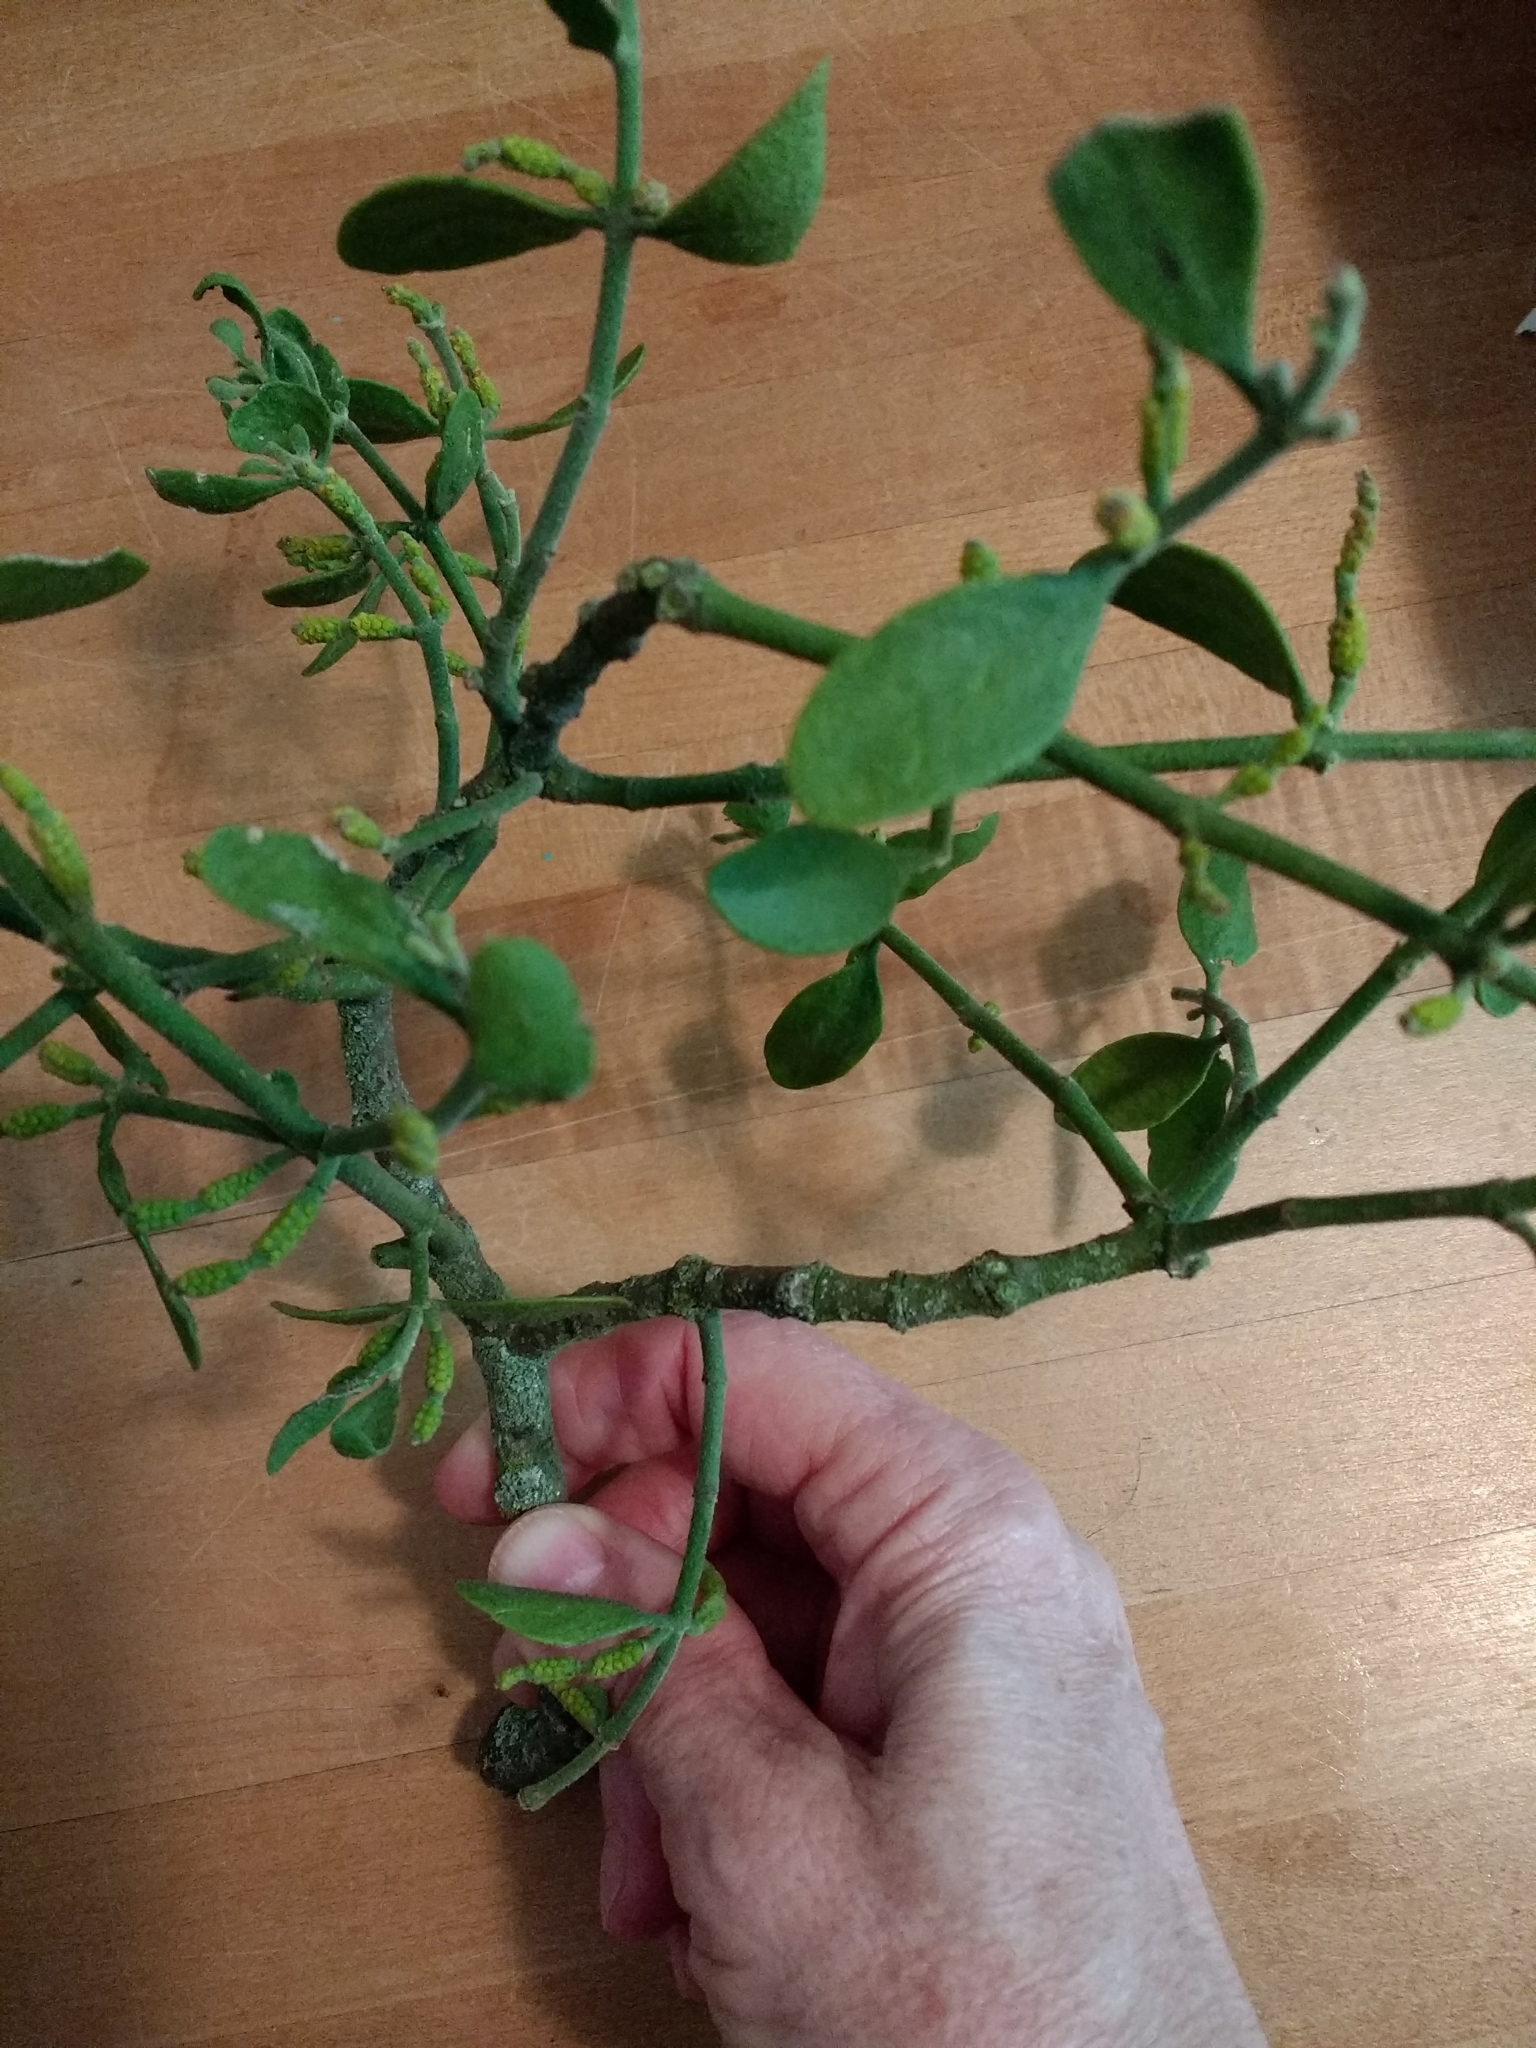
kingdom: Plantae
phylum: Tracheophyta
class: Magnoliopsida
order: Santalales
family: Viscaceae
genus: Phoradendron
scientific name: Phoradendron leucarpum
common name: Pacific mistletoe
